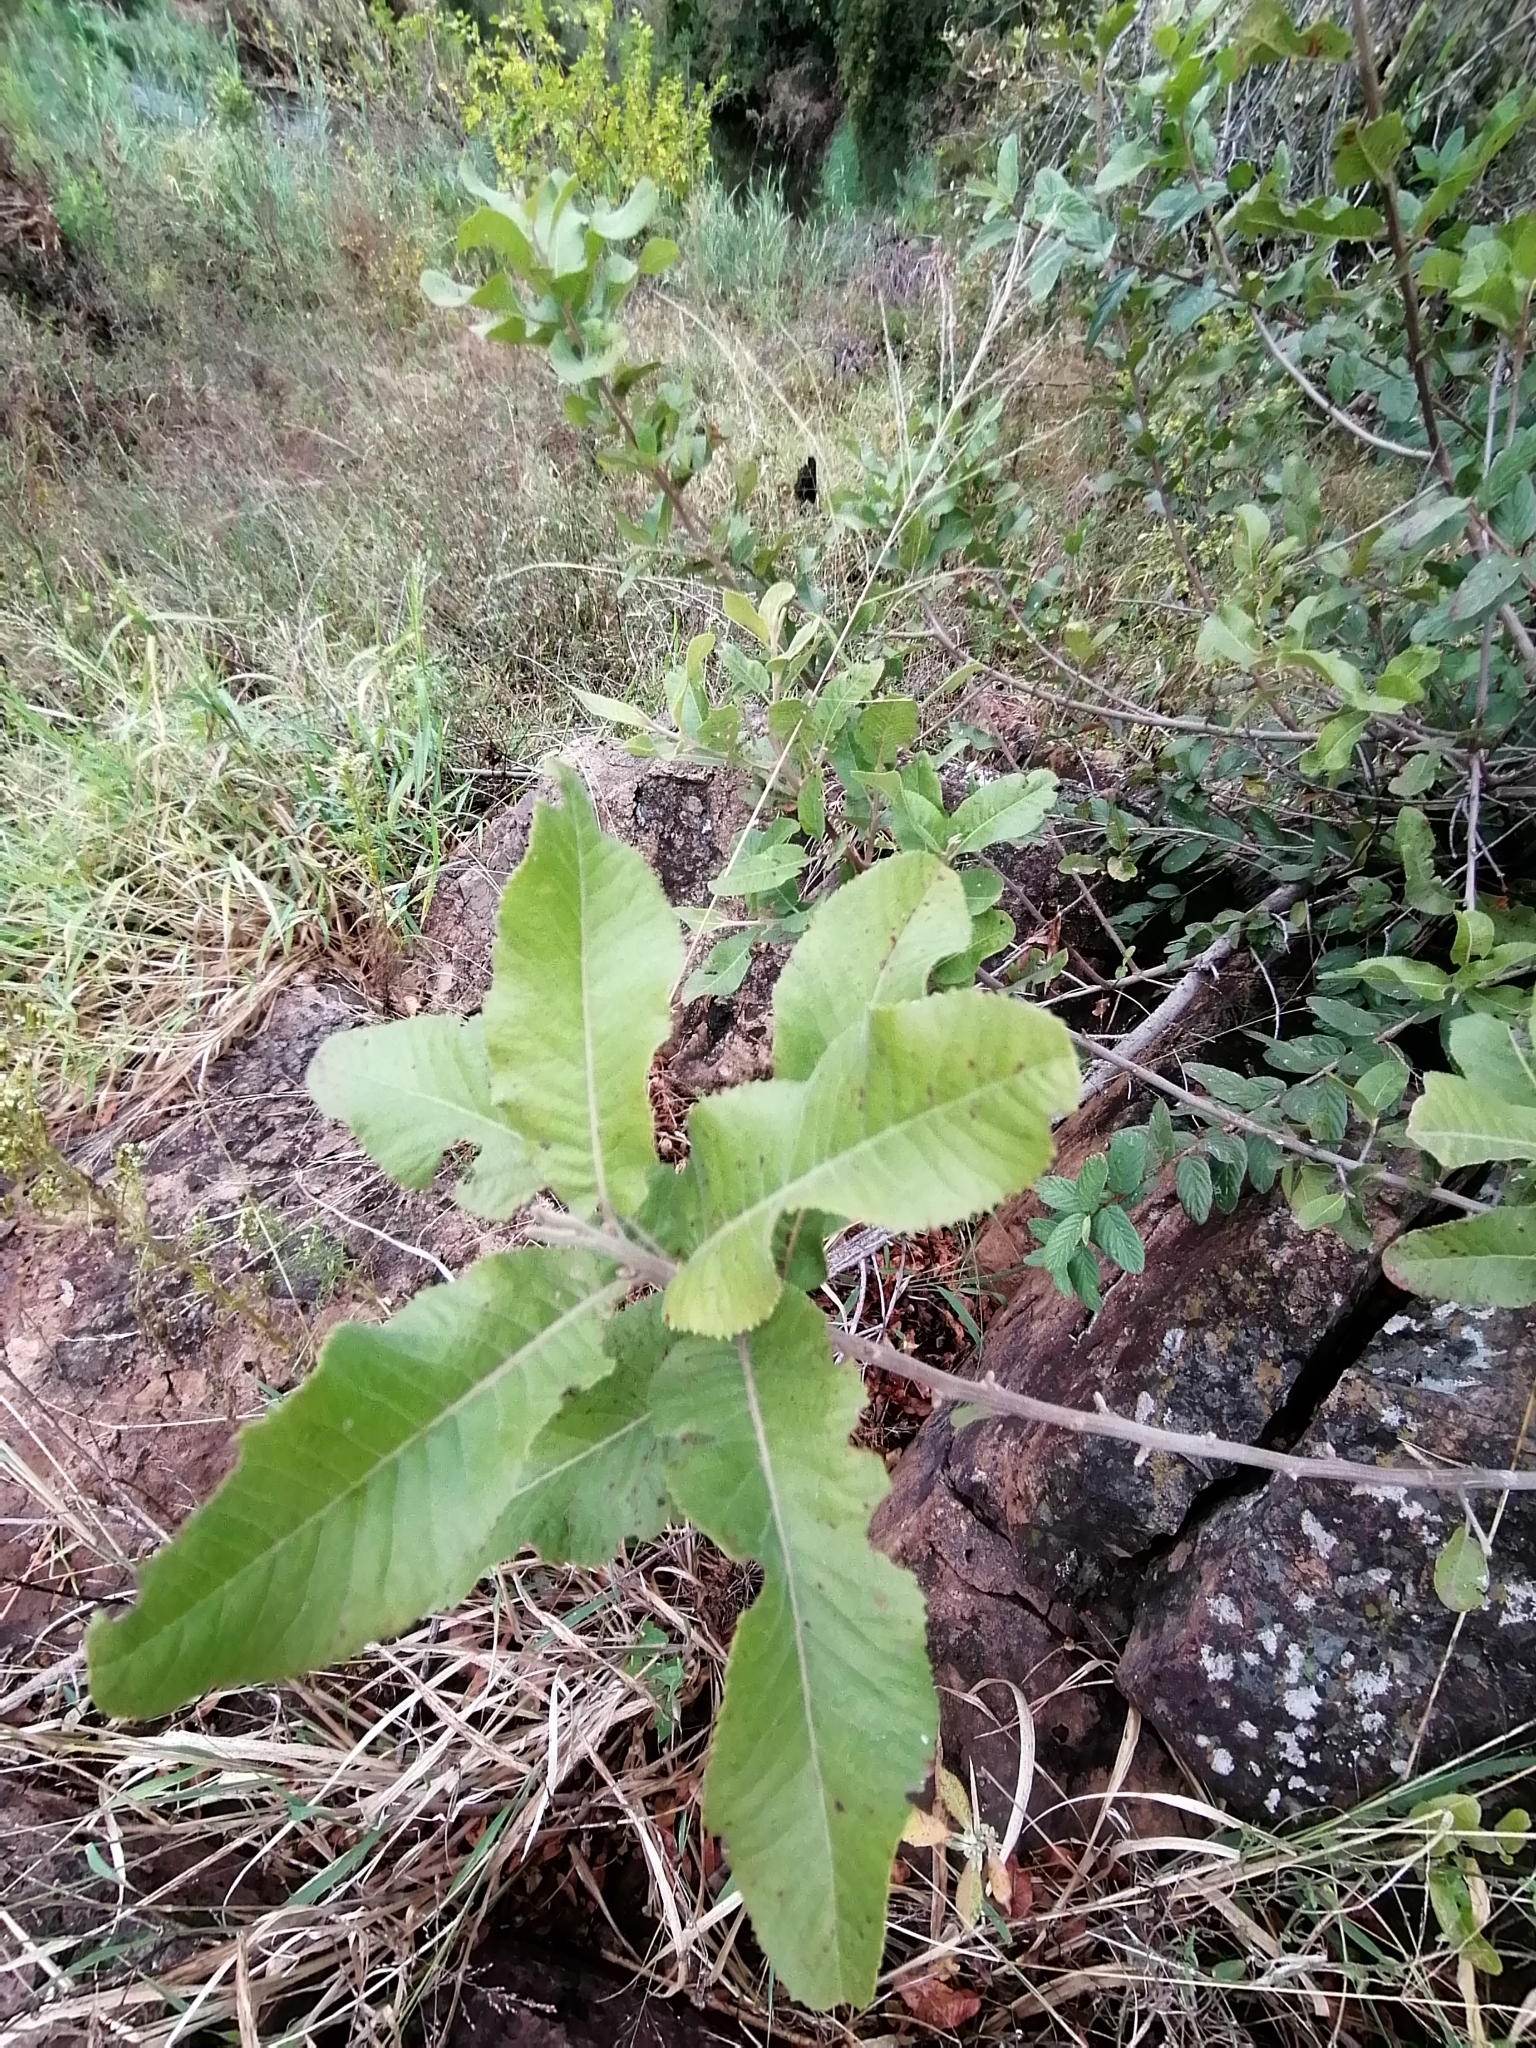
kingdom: Plantae
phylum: Tracheophyta
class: Magnoliopsida
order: Sapindales
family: Sapindaceae
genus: Pappea
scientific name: Pappea capensis
